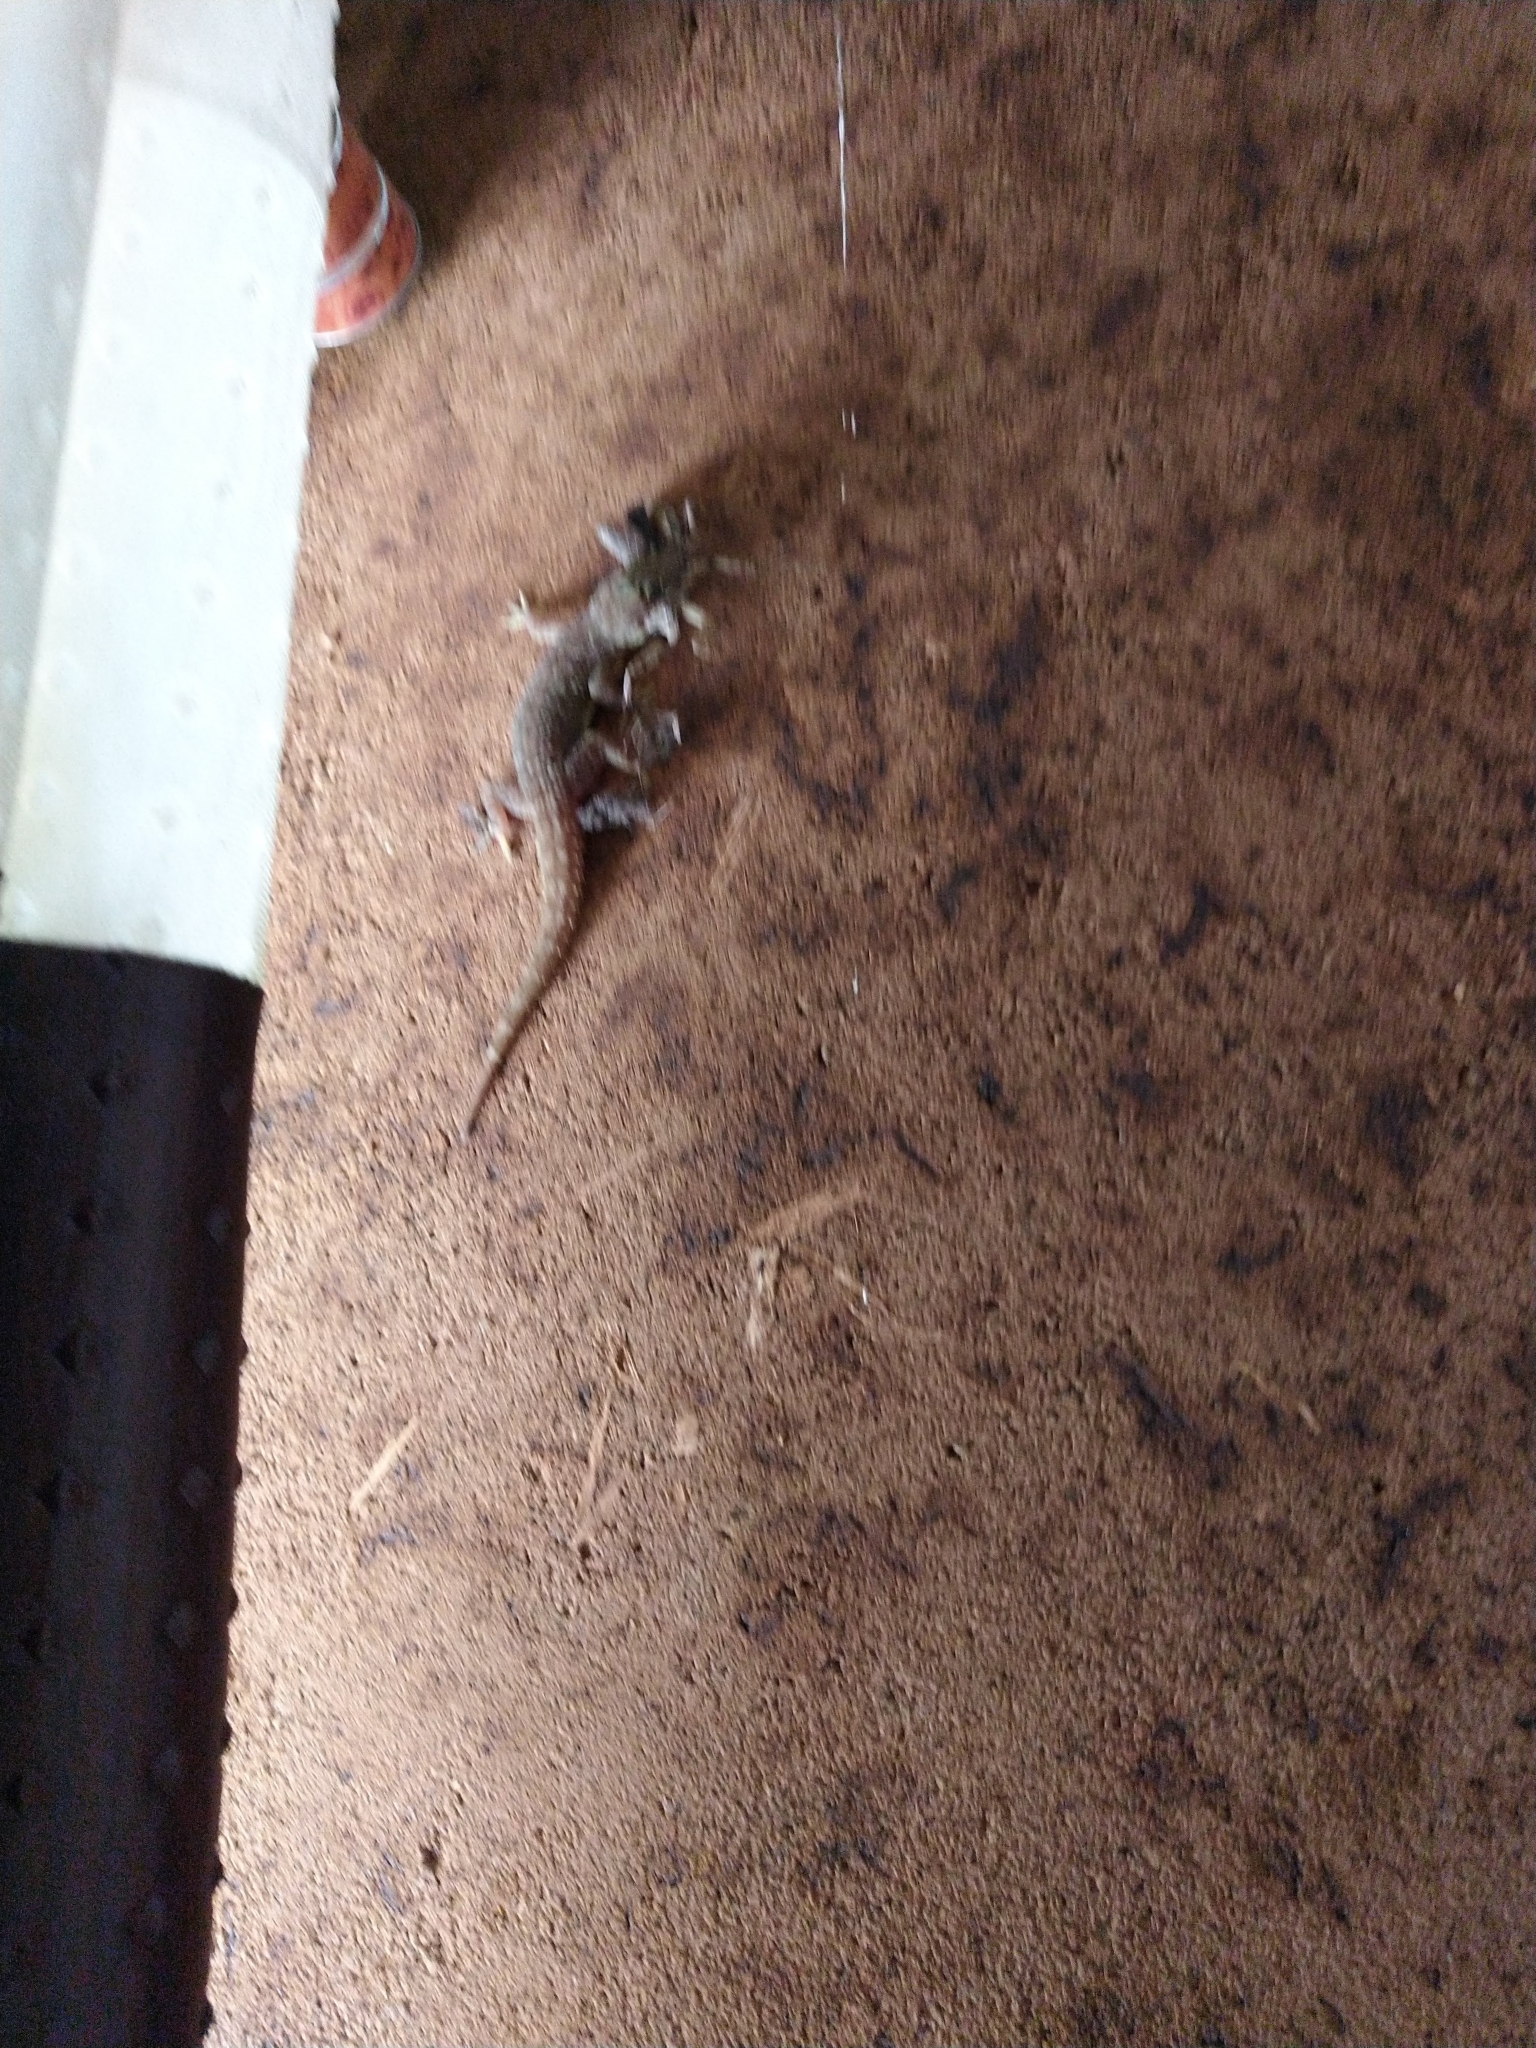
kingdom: Animalia
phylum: Chordata
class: Squamata
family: Gekkonidae
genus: Hemidactylus
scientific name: Hemidactylus parvimaculatus
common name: Spotted house gecko
